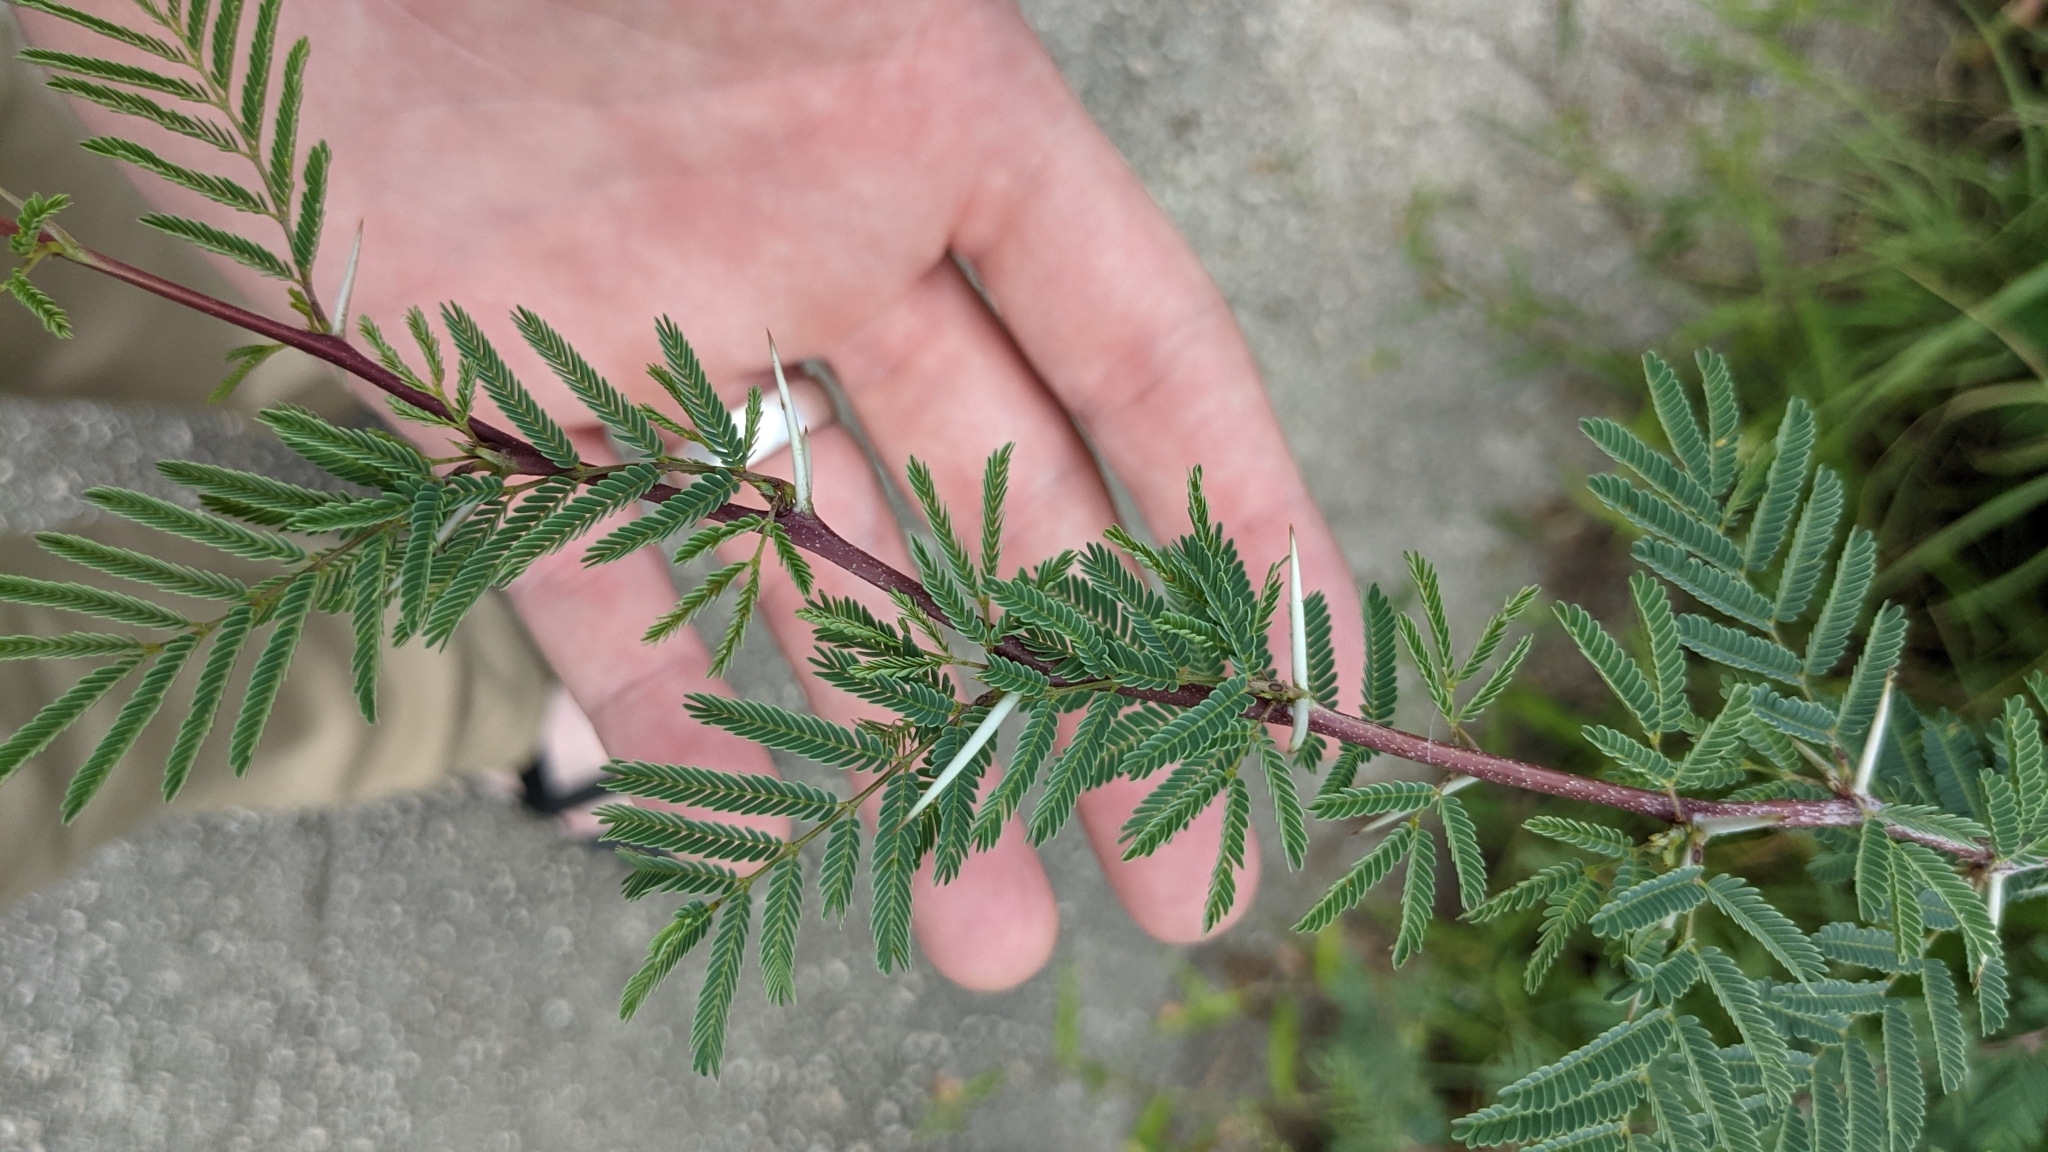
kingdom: Plantae
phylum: Tracheophyta
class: Magnoliopsida
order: Fabales
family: Fabaceae
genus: Vachellia
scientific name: Vachellia farnesiana
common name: Sweet acacia
